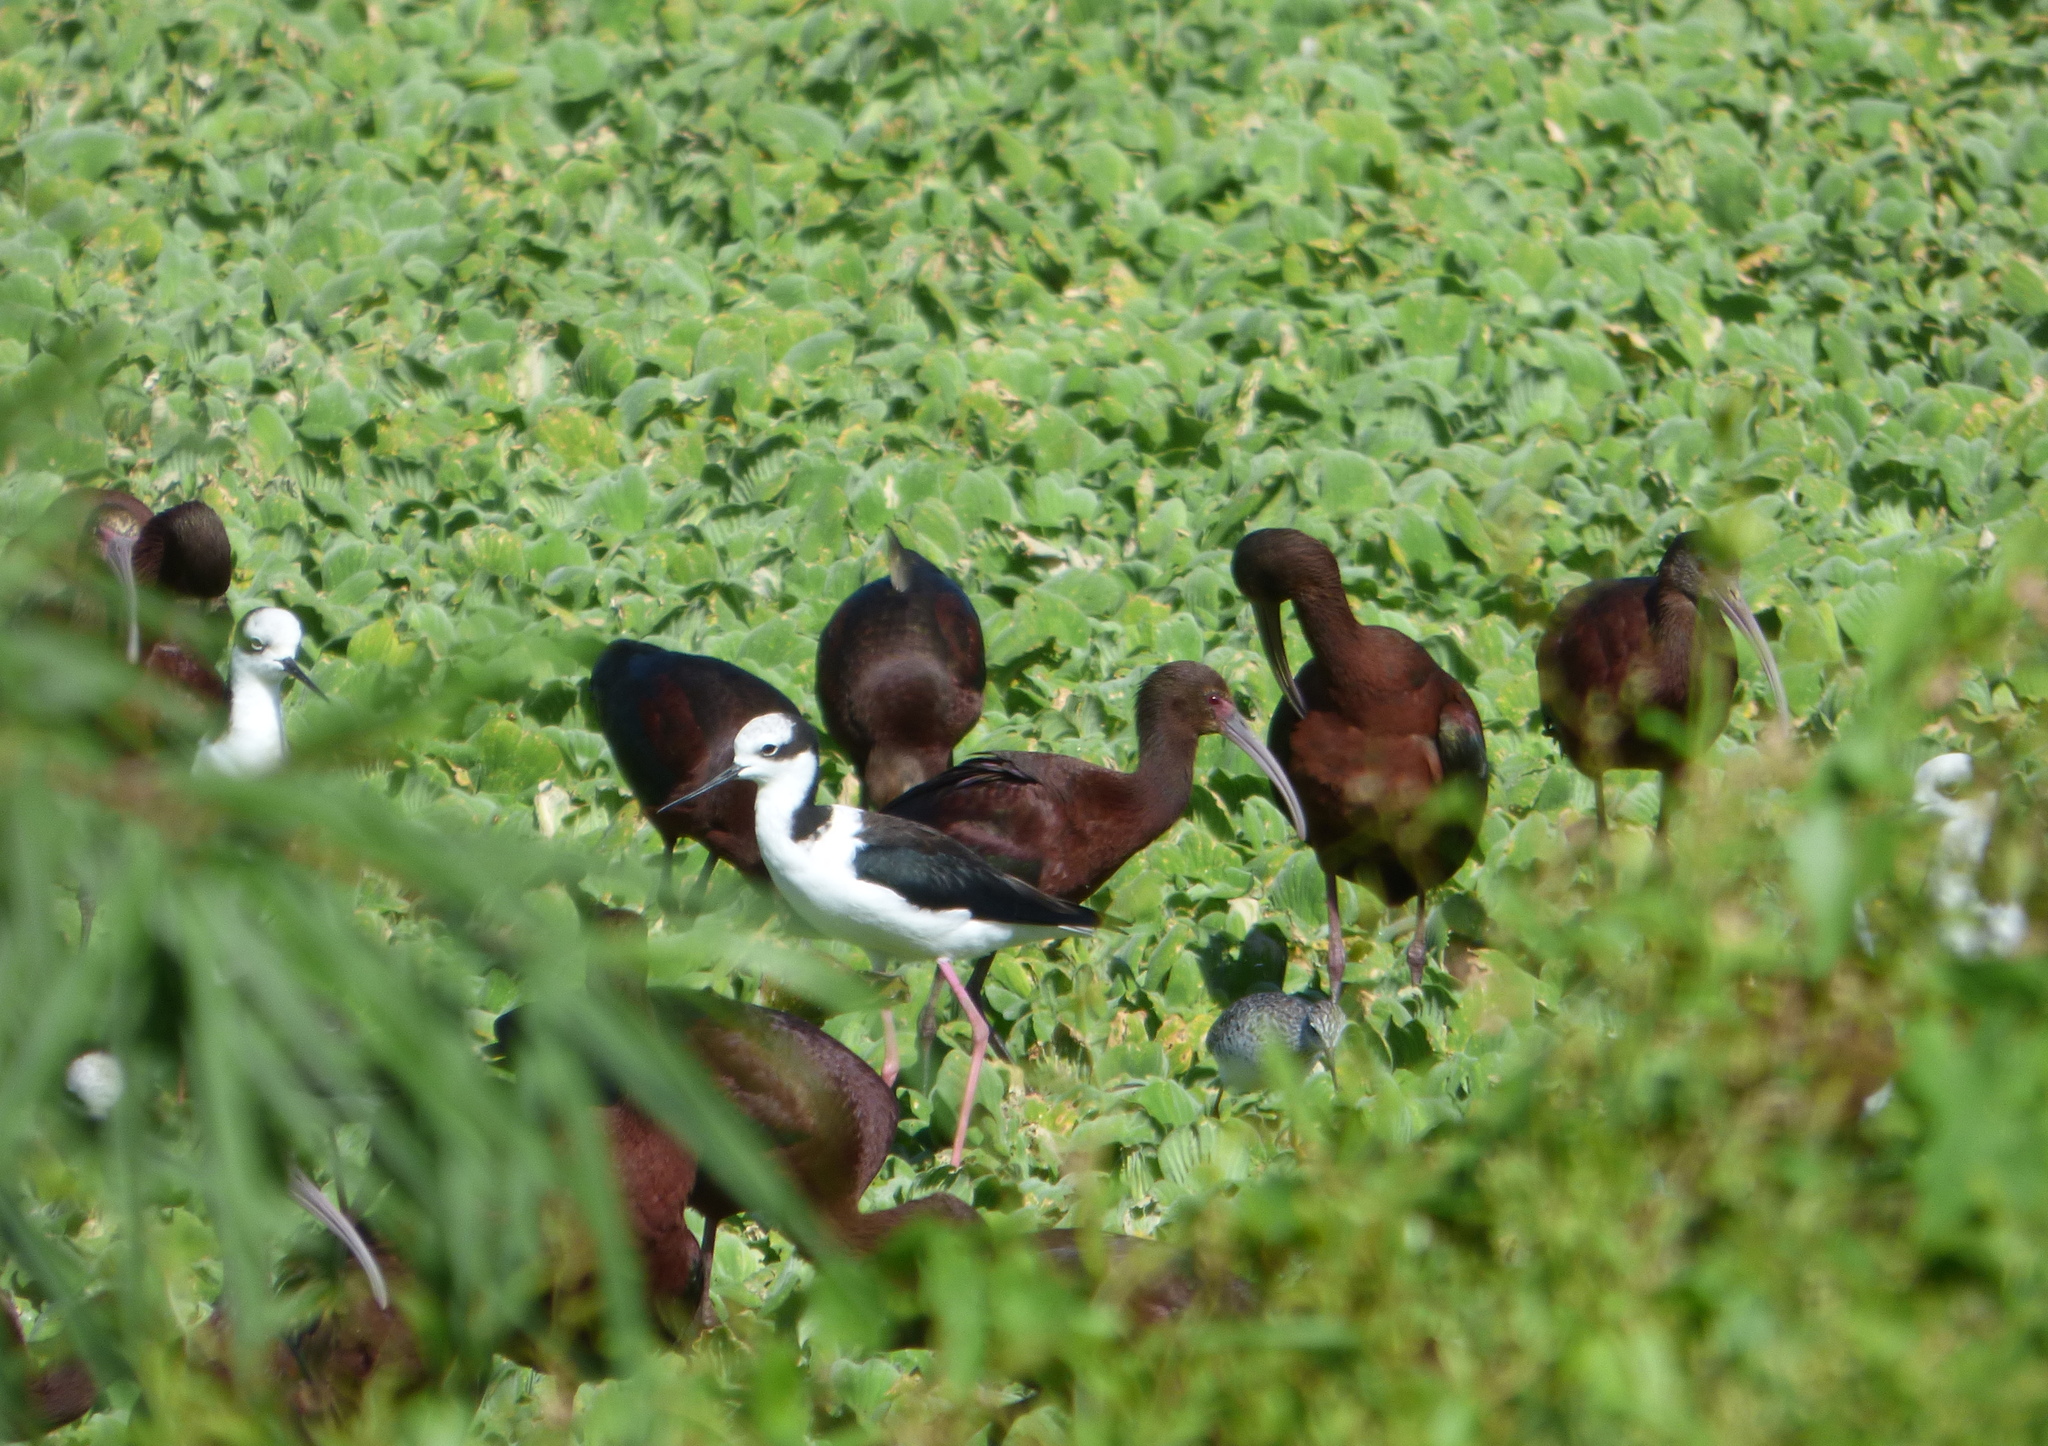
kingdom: Animalia
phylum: Chordata
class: Aves
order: Charadriiformes
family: Recurvirostridae
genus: Himantopus
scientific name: Himantopus mexicanus
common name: Black-necked stilt
